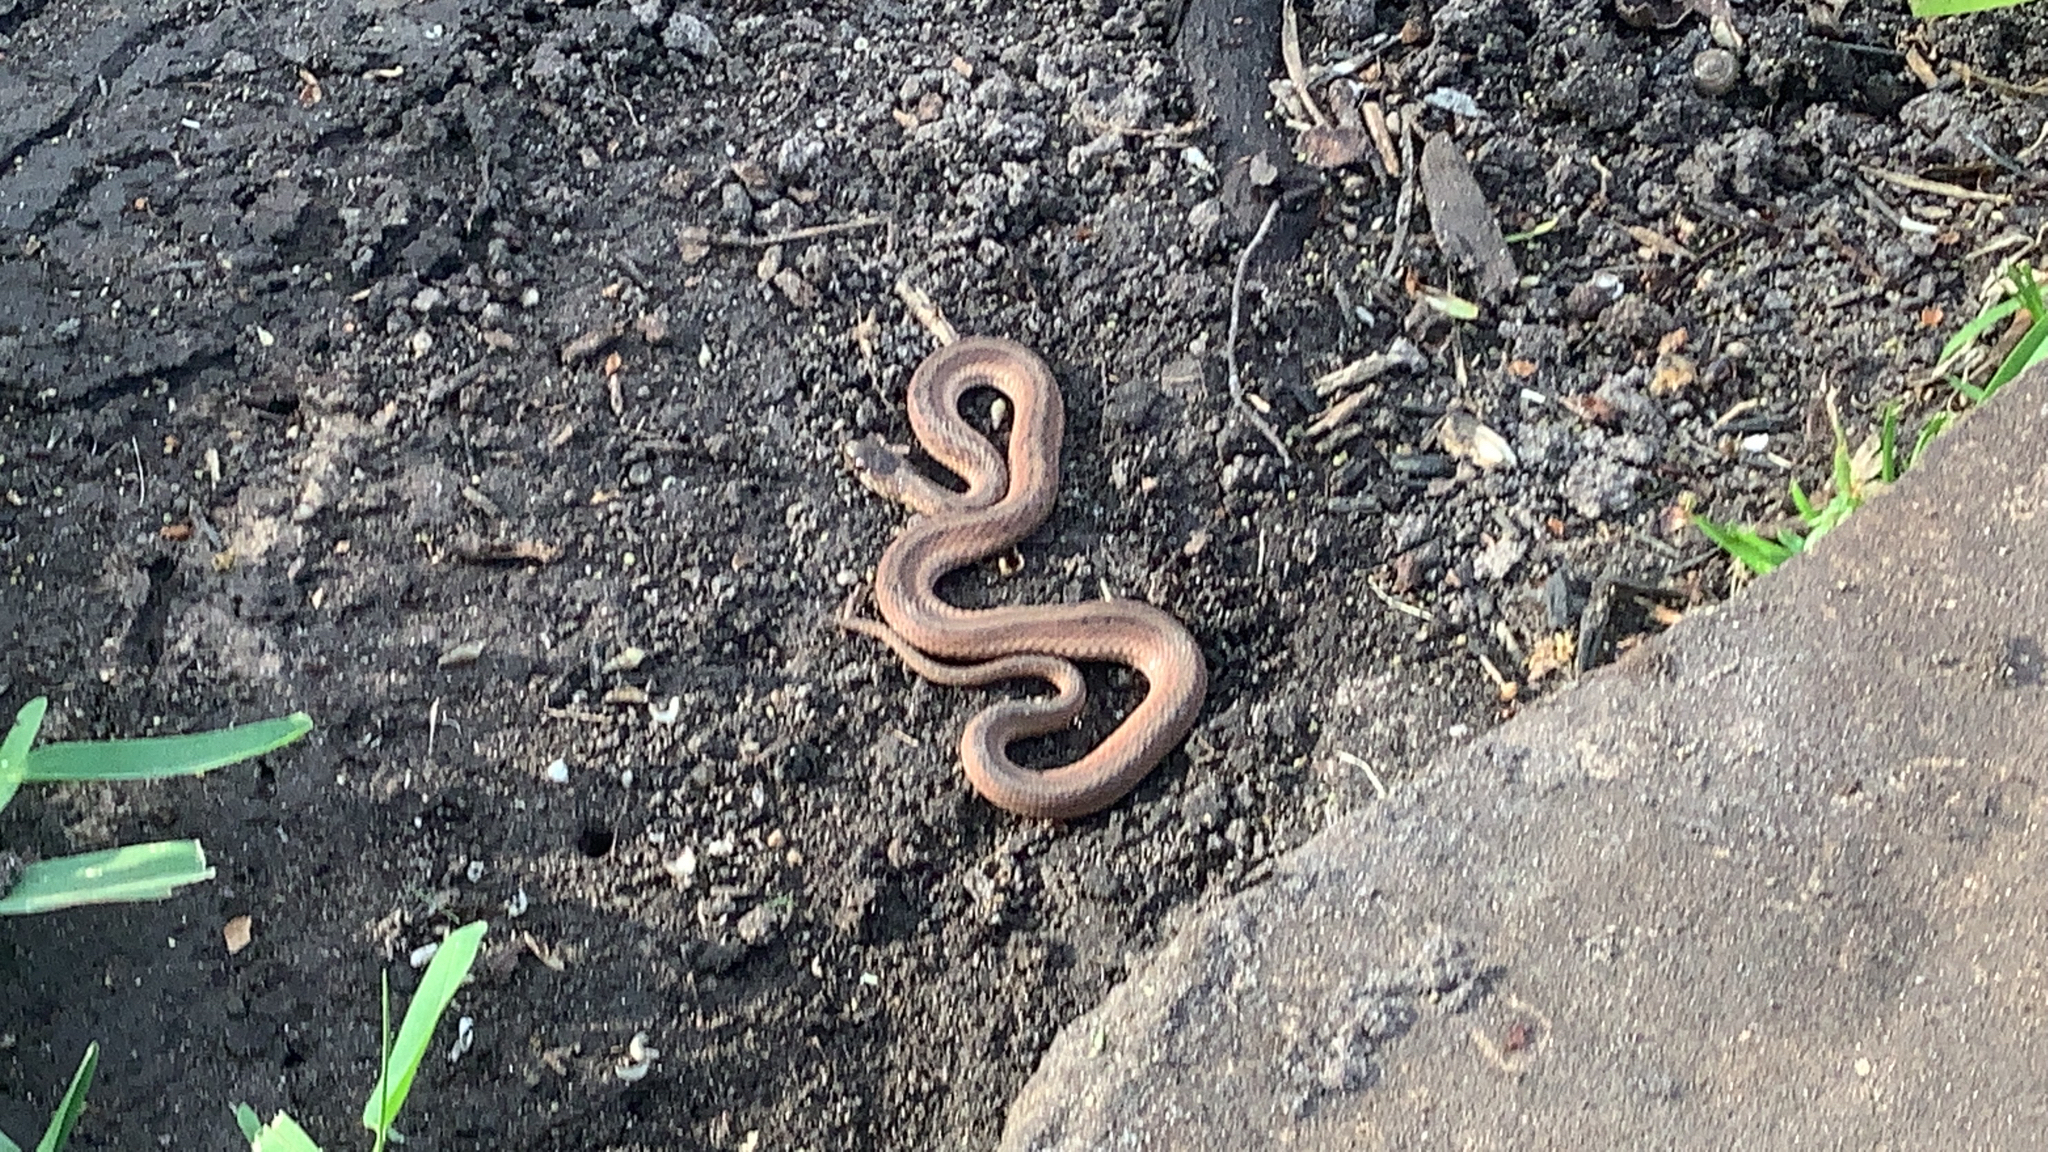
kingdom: Animalia
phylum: Chordata
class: Squamata
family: Colubridae
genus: Storeria
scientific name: Storeria dekayi
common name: (dekay’s) brown snake
